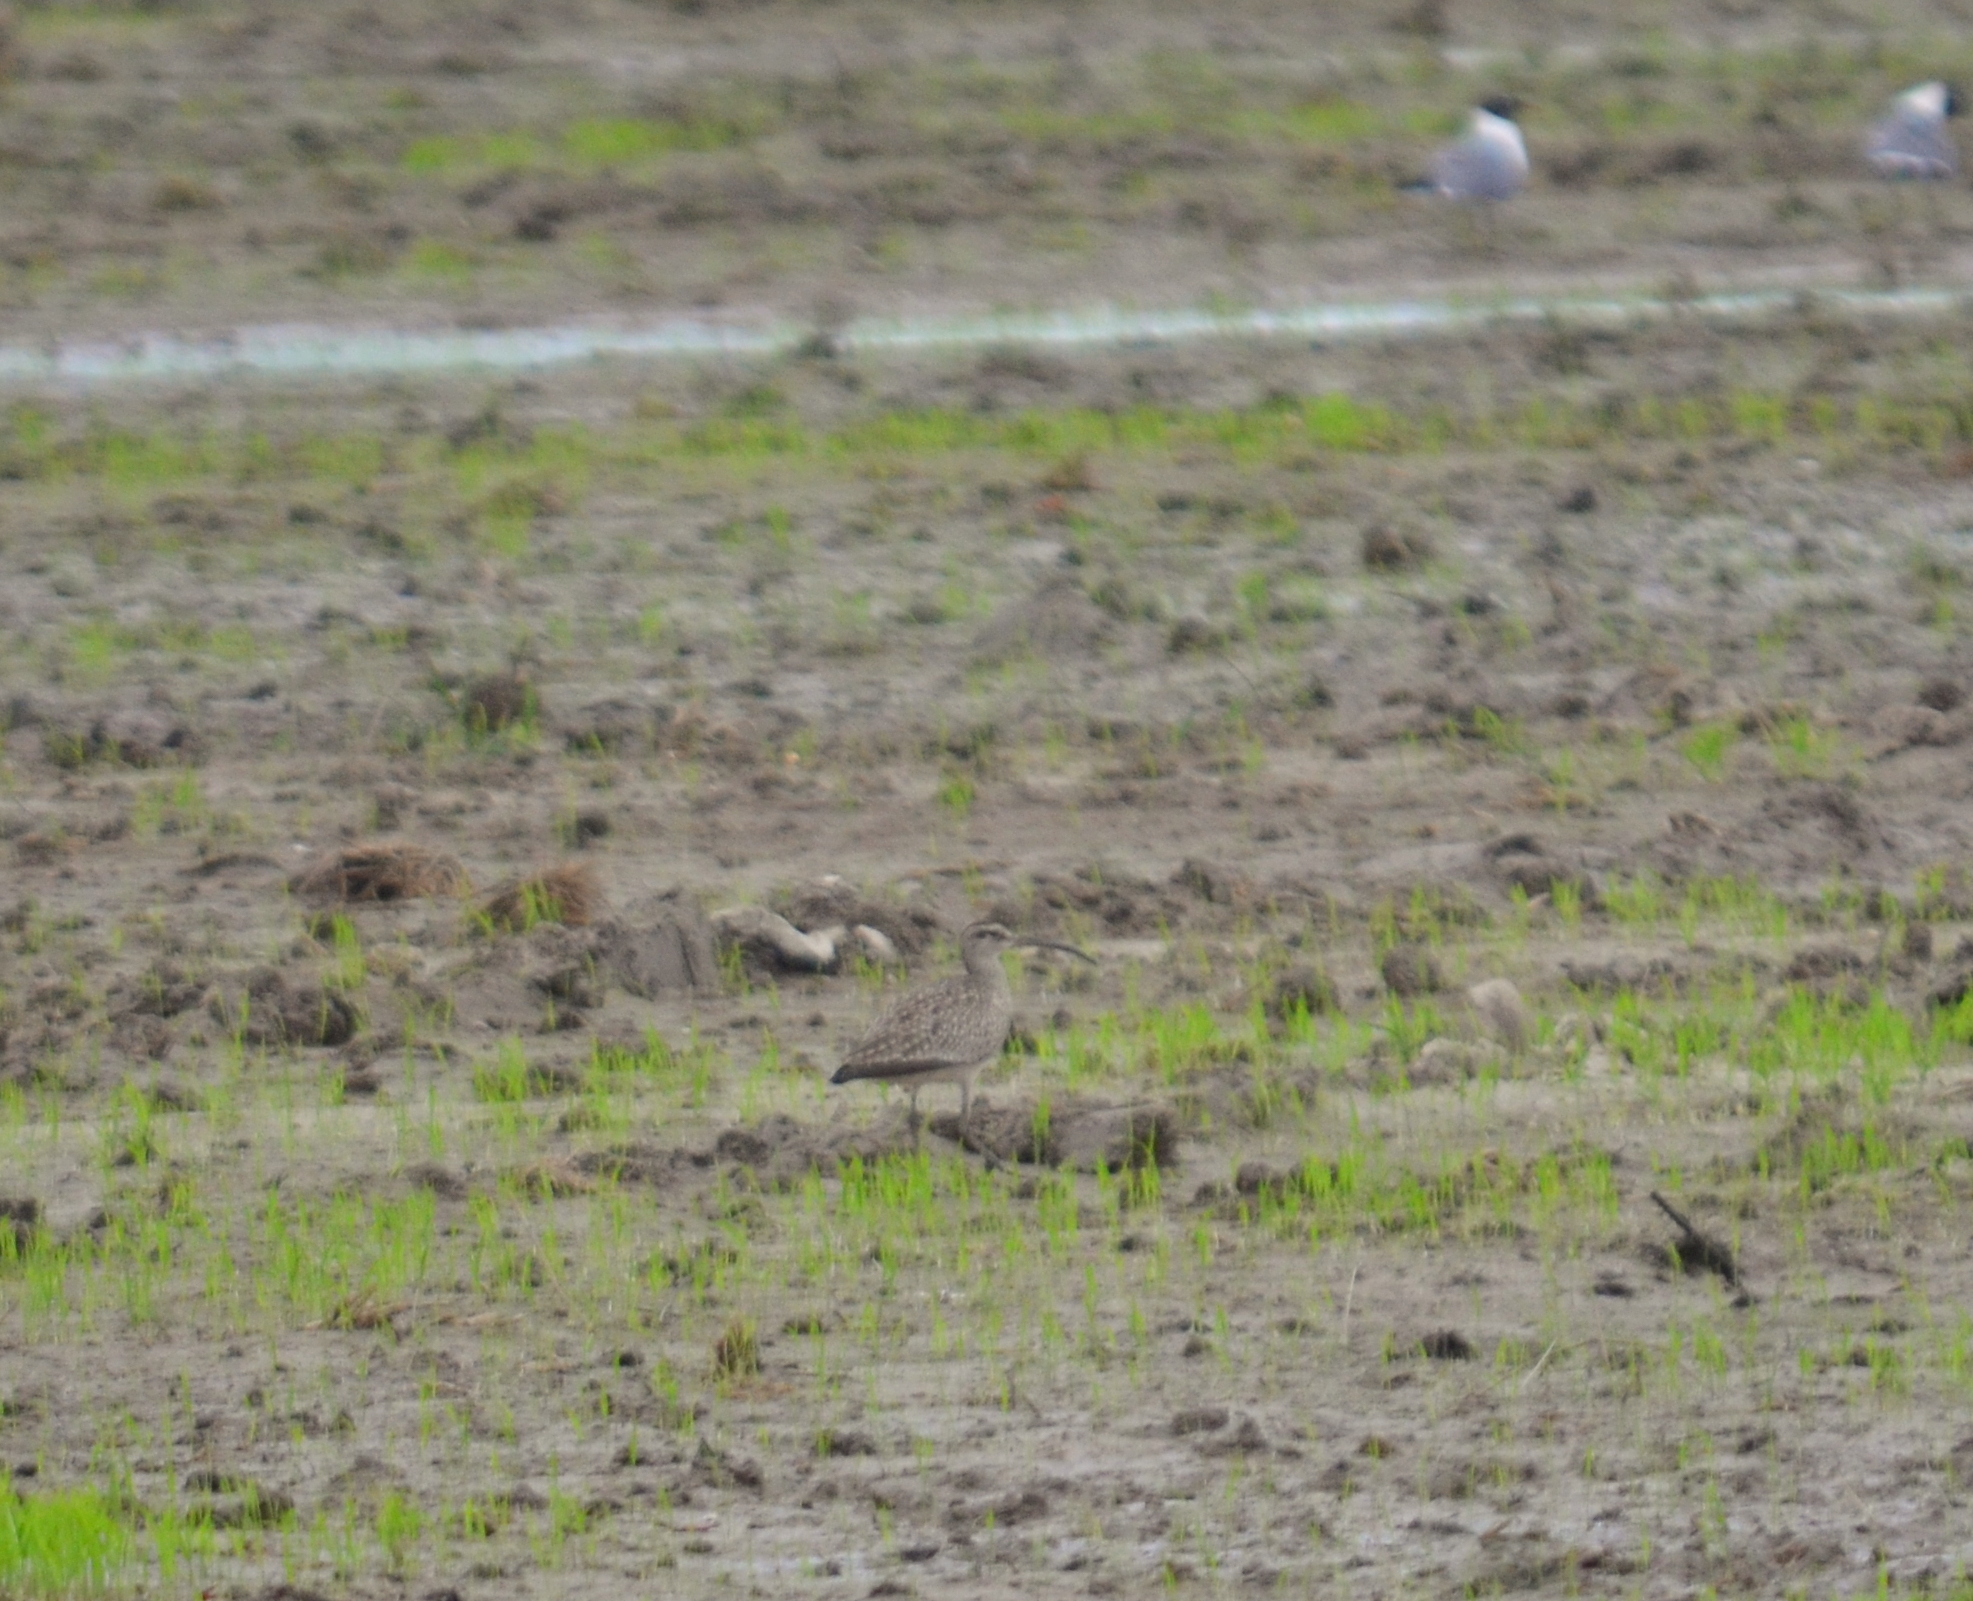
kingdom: Animalia
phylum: Chordata
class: Aves
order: Charadriiformes
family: Scolopacidae
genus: Numenius
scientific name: Numenius phaeopus
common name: Whimbrel
